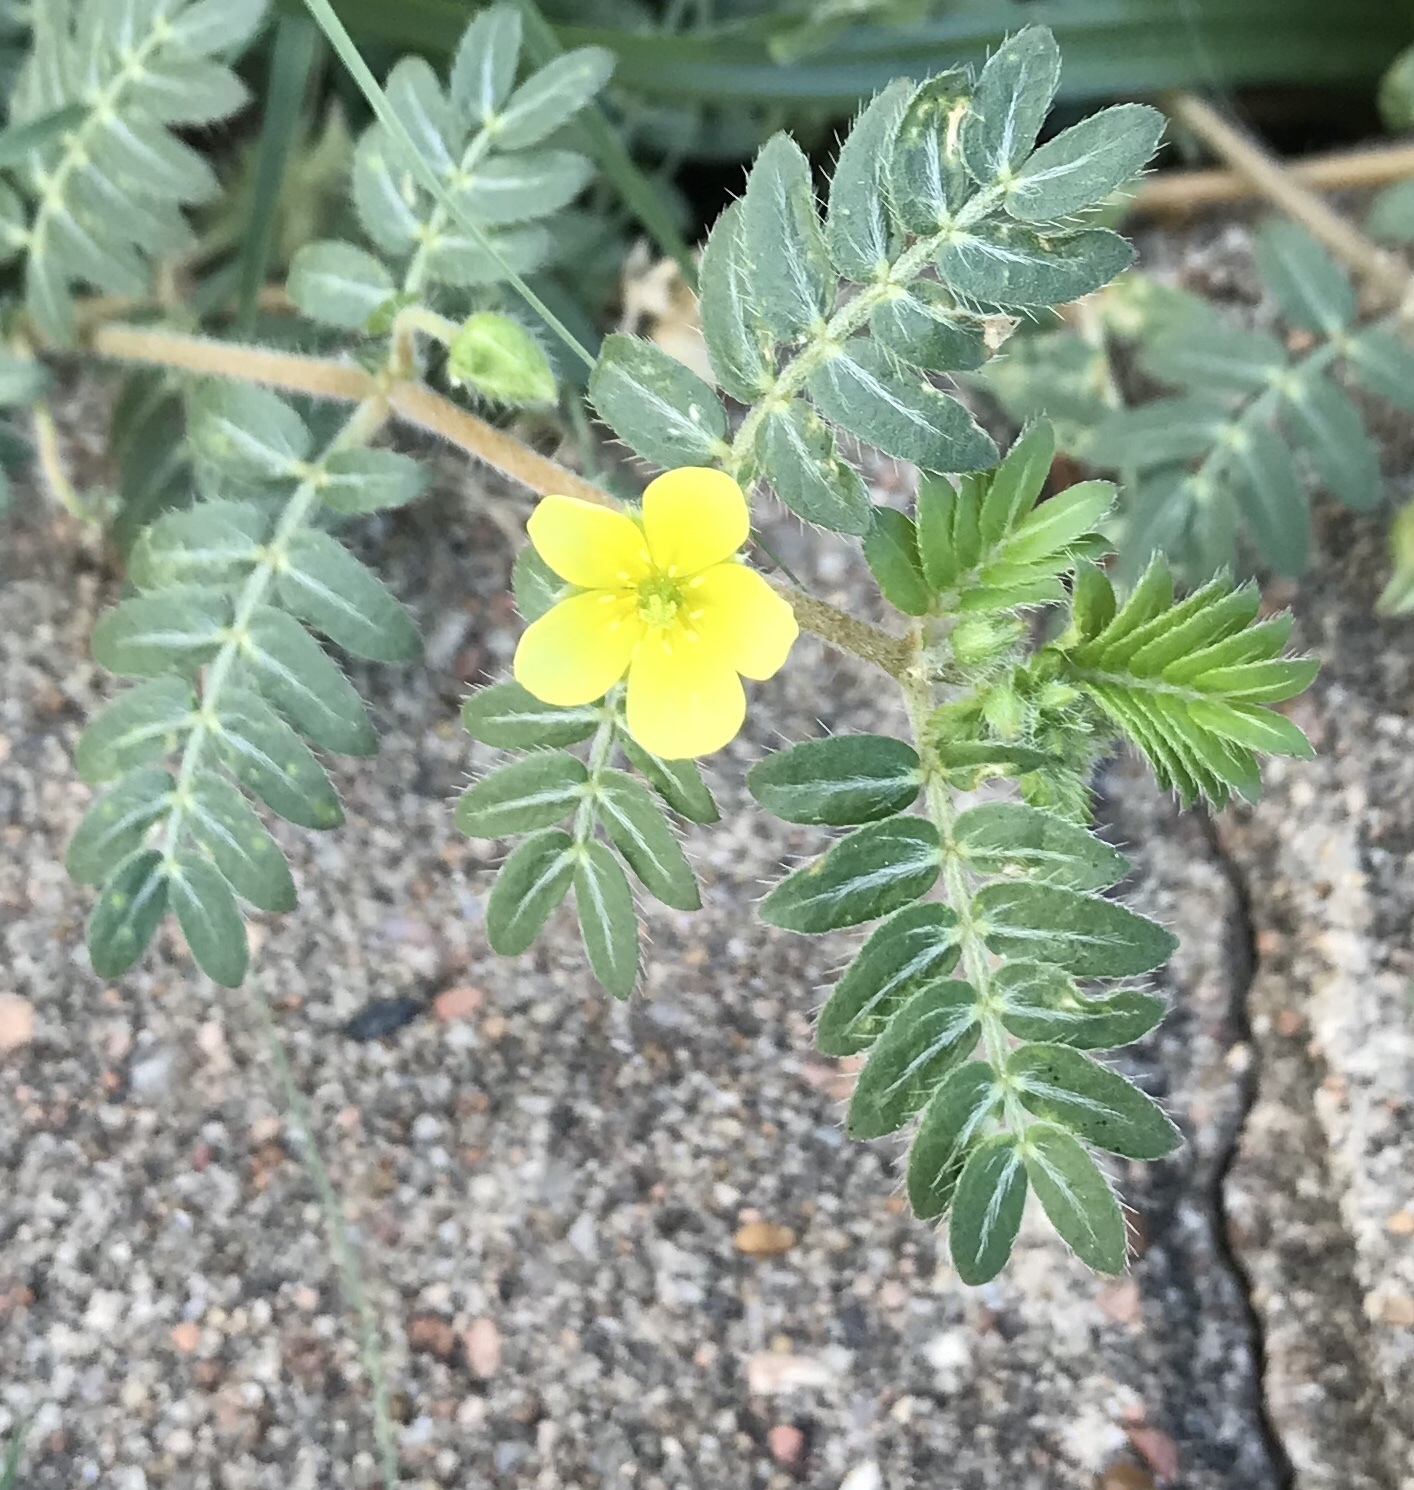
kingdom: Plantae
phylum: Tracheophyta
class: Magnoliopsida
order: Zygophyllales
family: Zygophyllaceae
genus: Tribulus
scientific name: Tribulus terrestris
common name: Puncturevine
